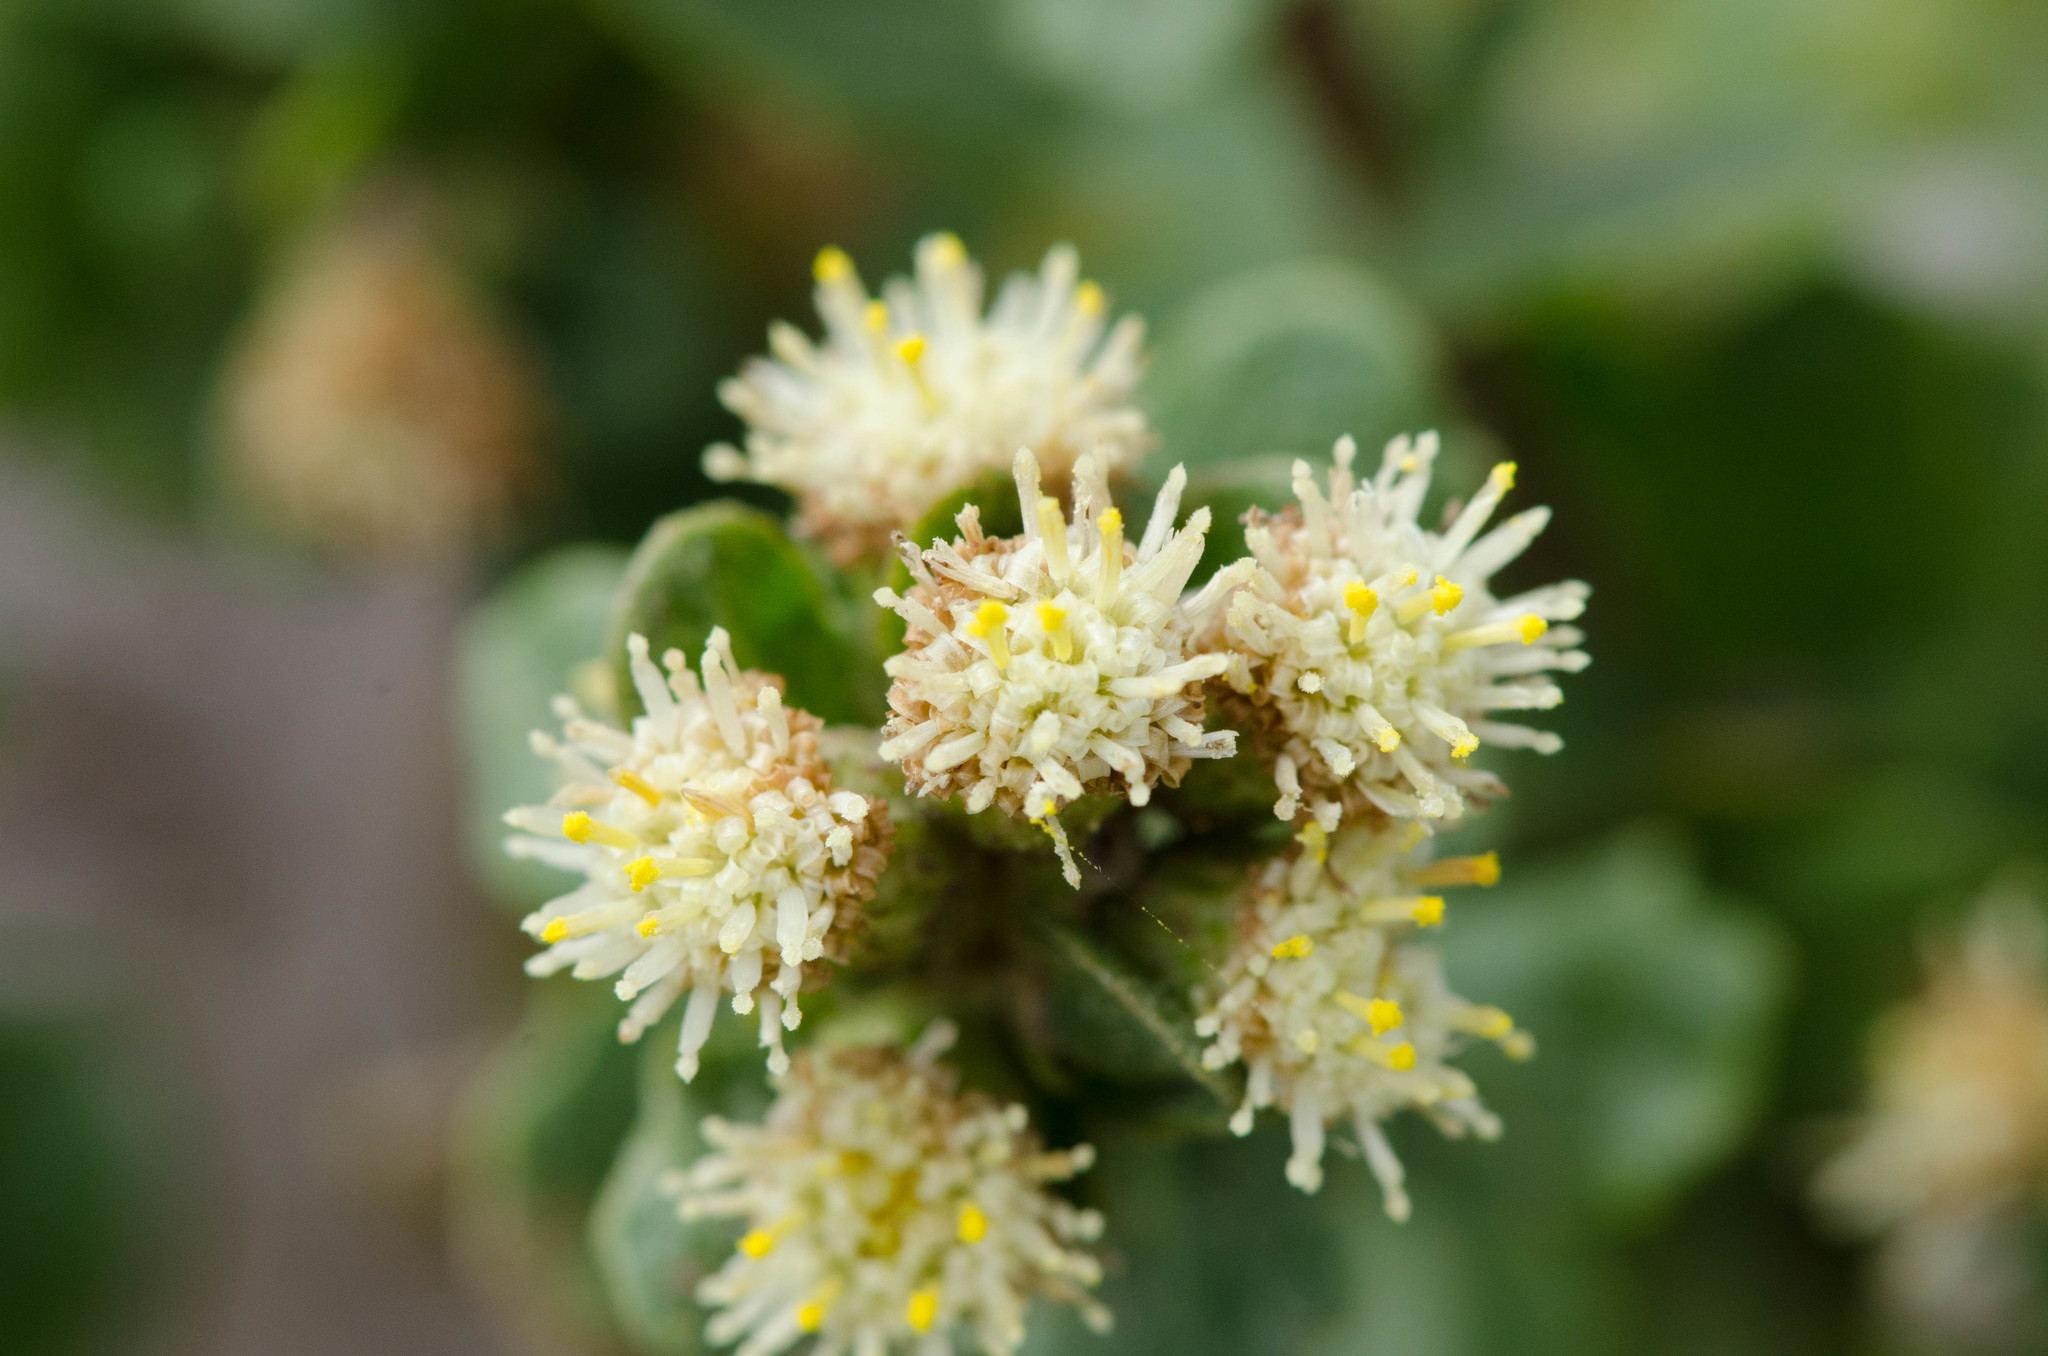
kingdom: Plantae
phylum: Tracheophyta
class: Magnoliopsida
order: Asterales
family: Asteraceae
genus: Baccharis
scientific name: Baccharis pilularis
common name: Coyotebrush
